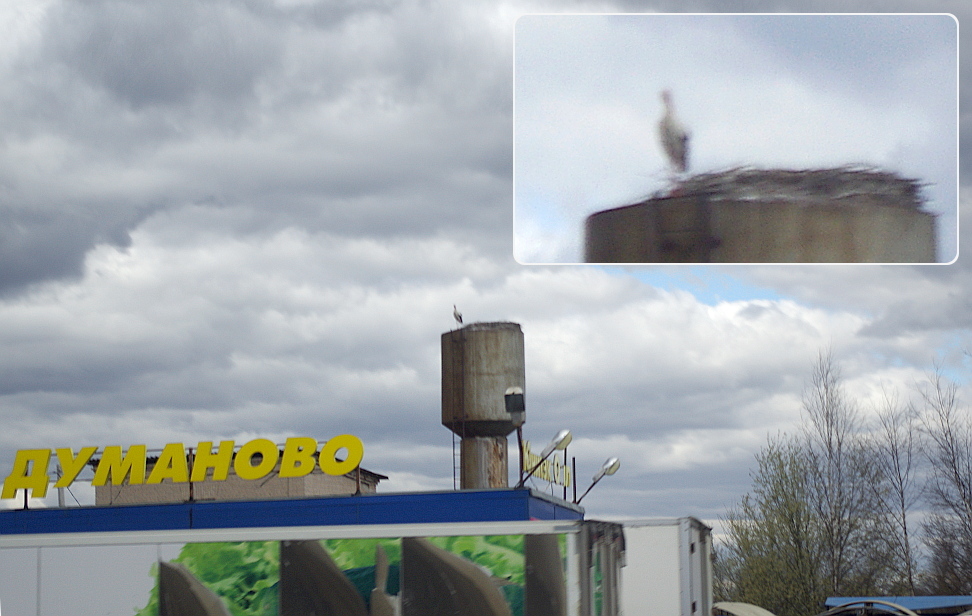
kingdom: Animalia
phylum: Chordata
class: Aves
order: Ciconiiformes
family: Ciconiidae
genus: Ciconia
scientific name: Ciconia ciconia
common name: White stork
